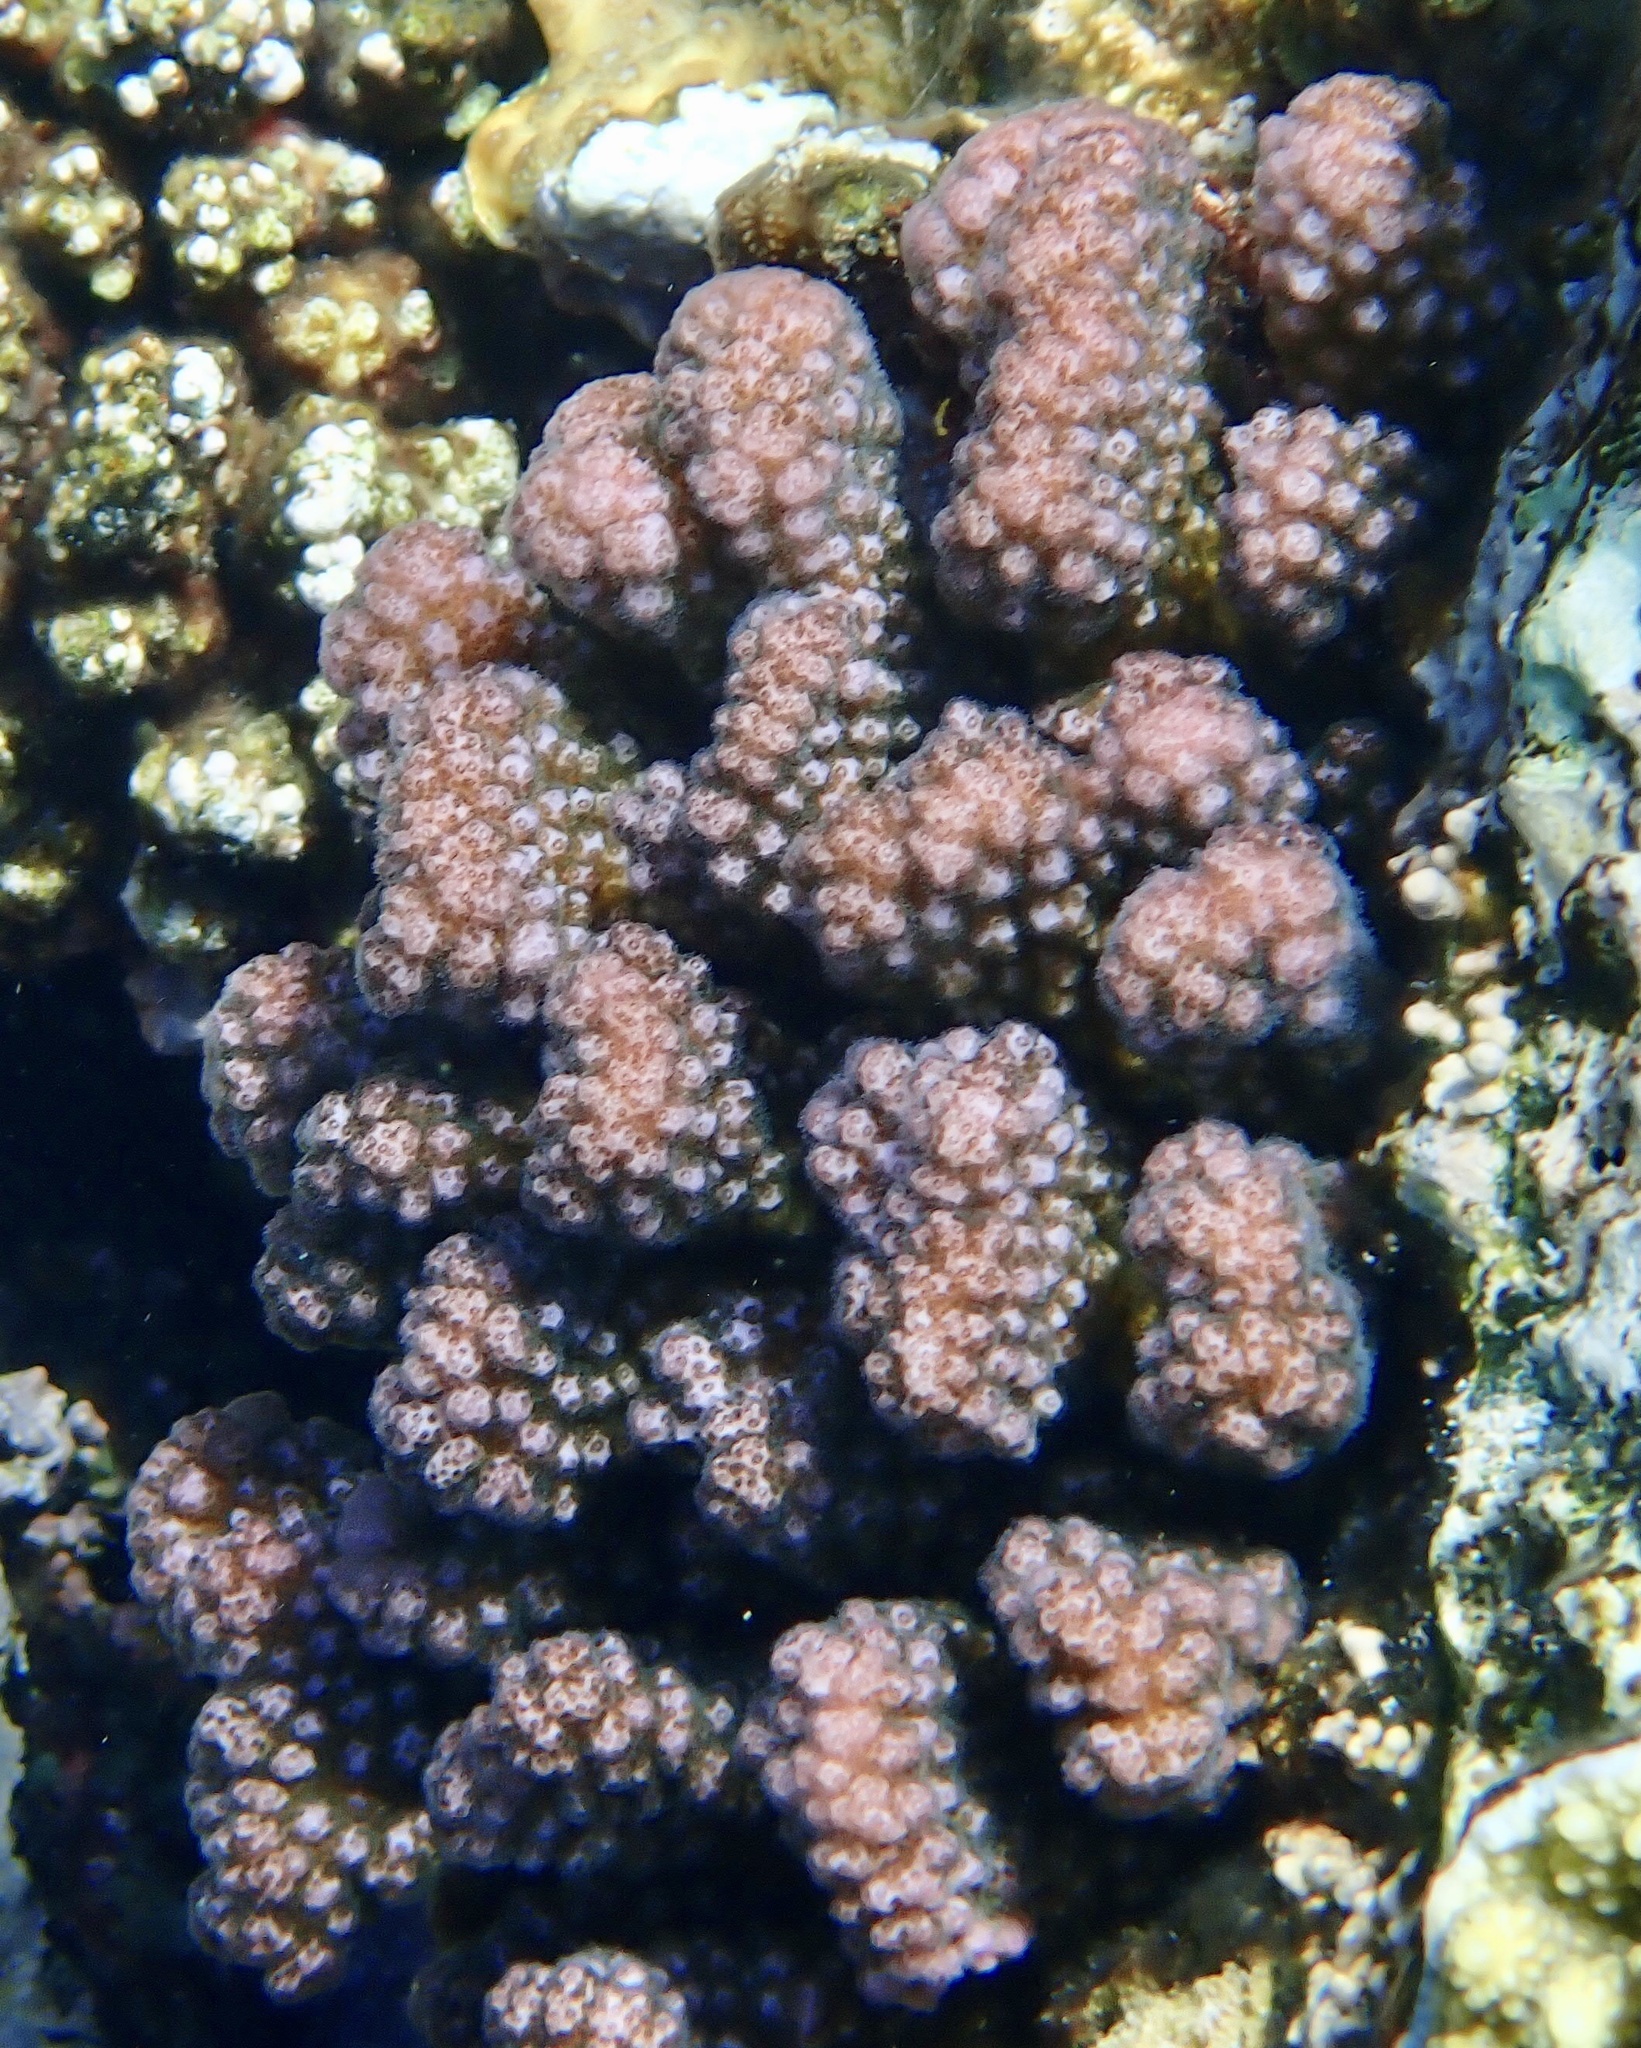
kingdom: Animalia
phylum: Cnidaria
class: Anthozoa
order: Scleractinia
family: Pocilloporidae
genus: Pocillopora
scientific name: Pocillopora verrucosa
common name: Cauliflower coral
